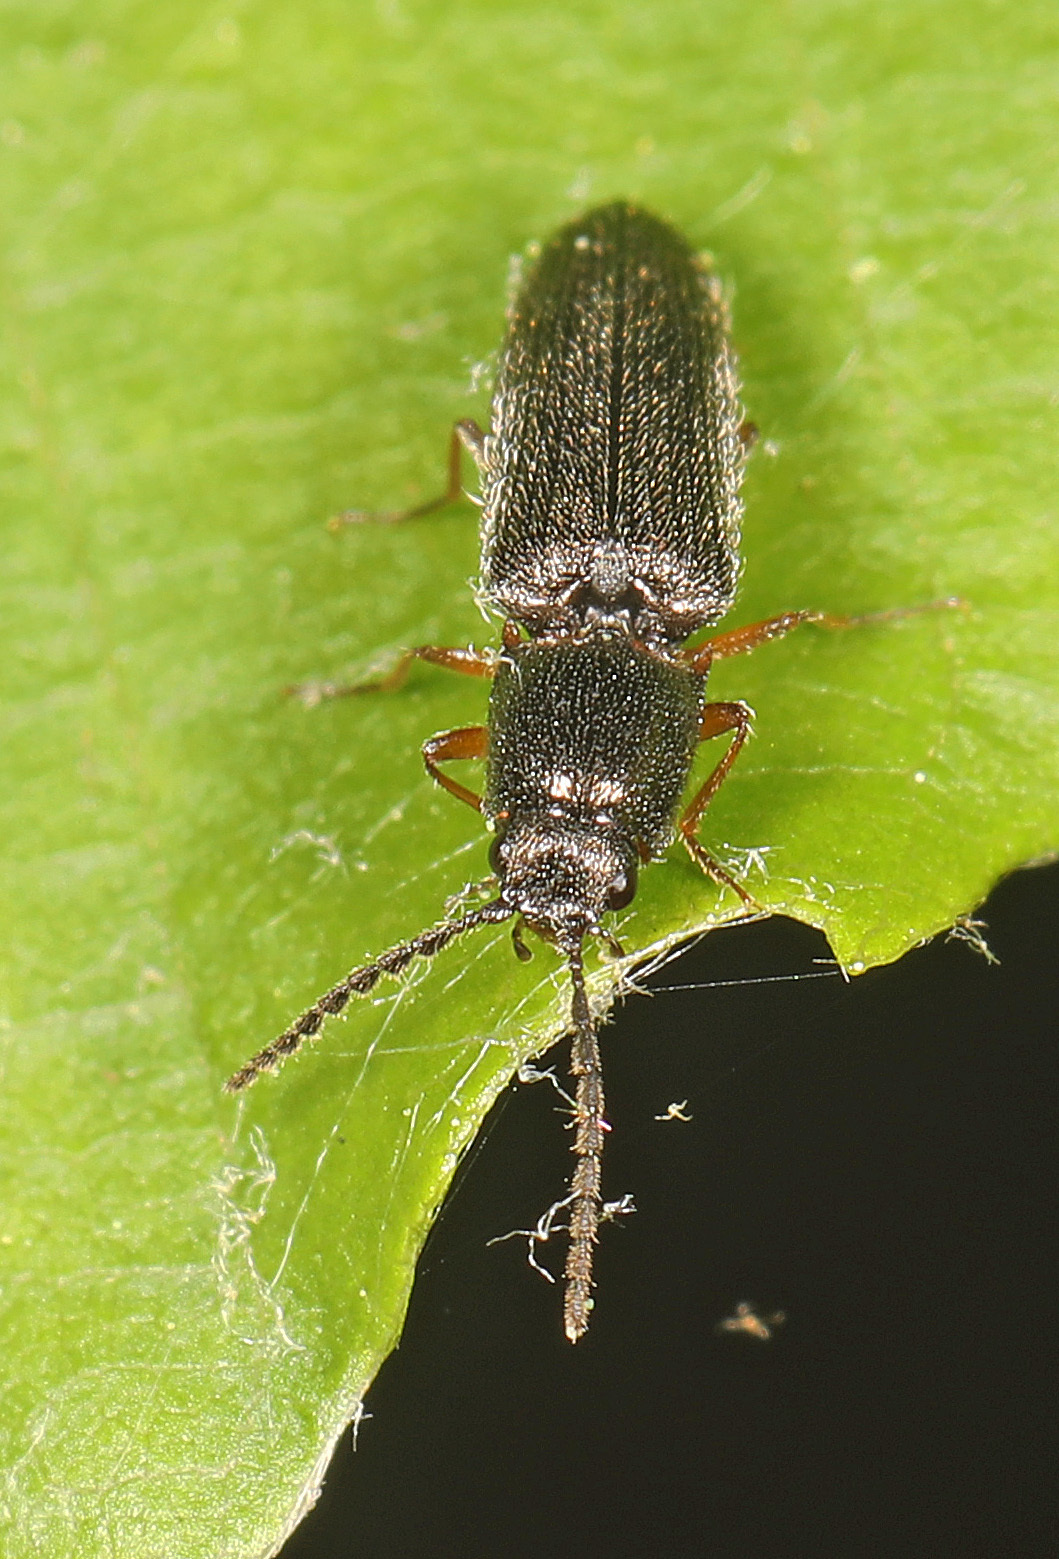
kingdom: Animalia
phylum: Arthropoda
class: Insecta
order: Coleoptera
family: Elateridae
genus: Limonius
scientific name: Limonius basilaris
